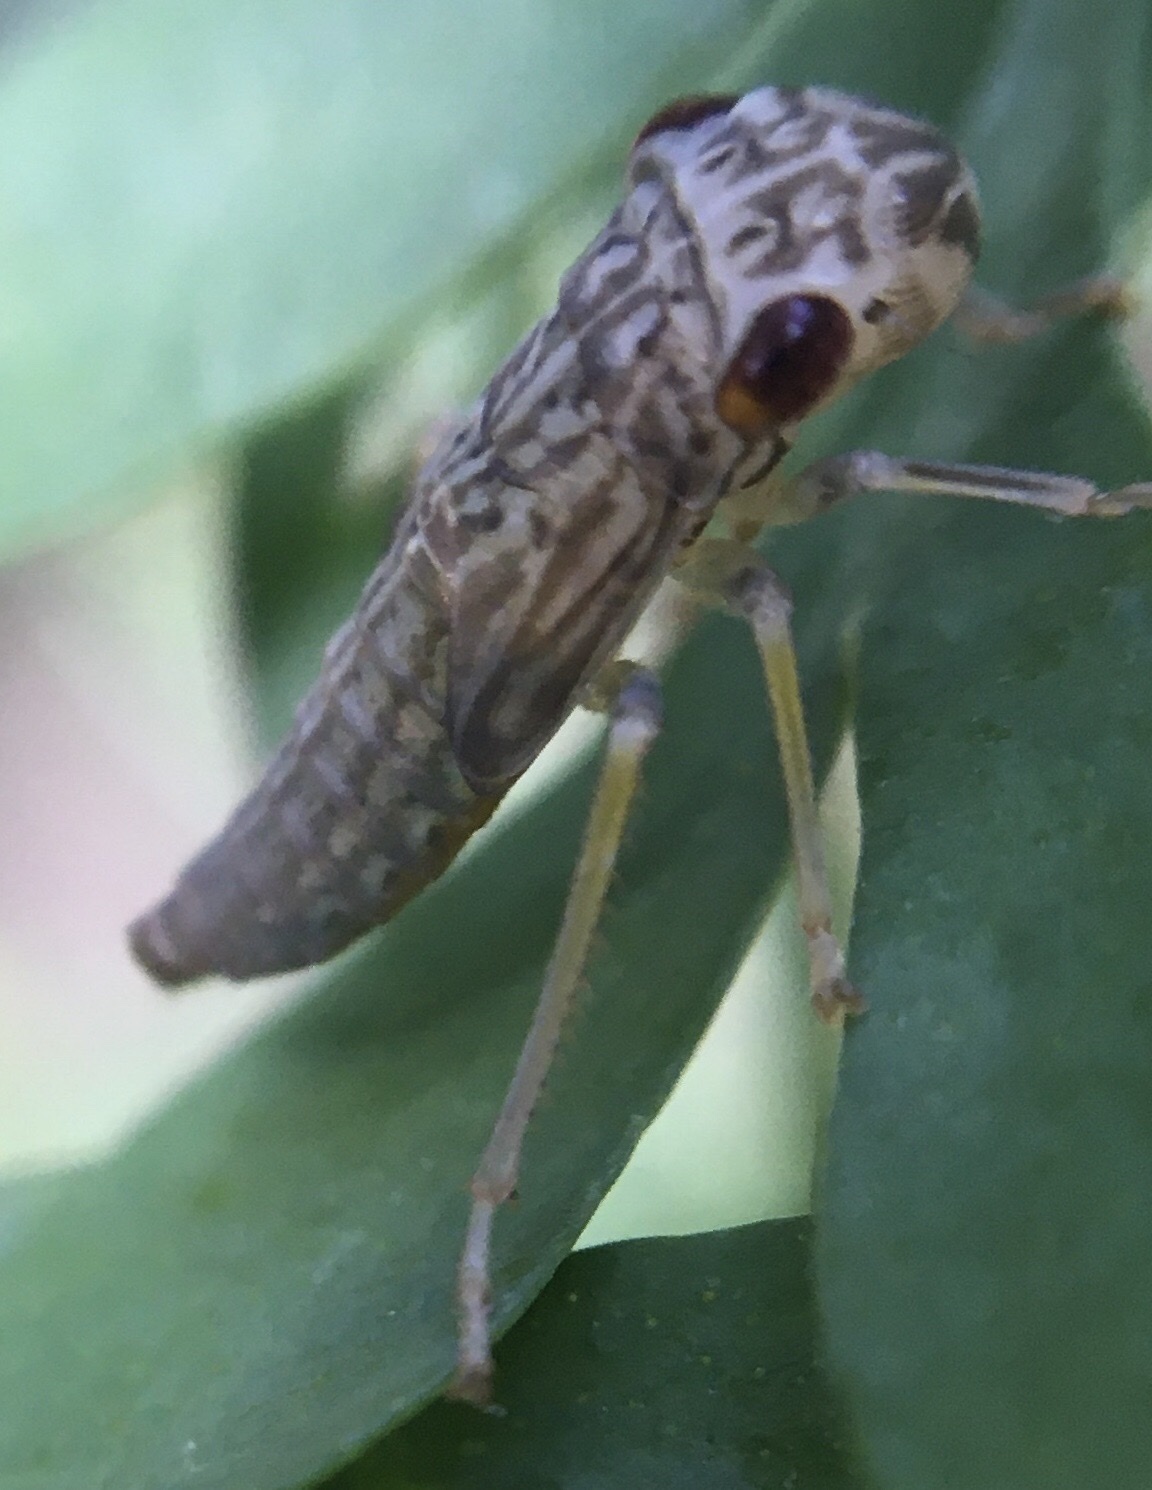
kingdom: Animalia
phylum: Arthropoda
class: Insecta
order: Hemiptera
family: Cicadellidae
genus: Oncometopia
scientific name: Oncometopia orbona
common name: Broad-headed sharpshooter
